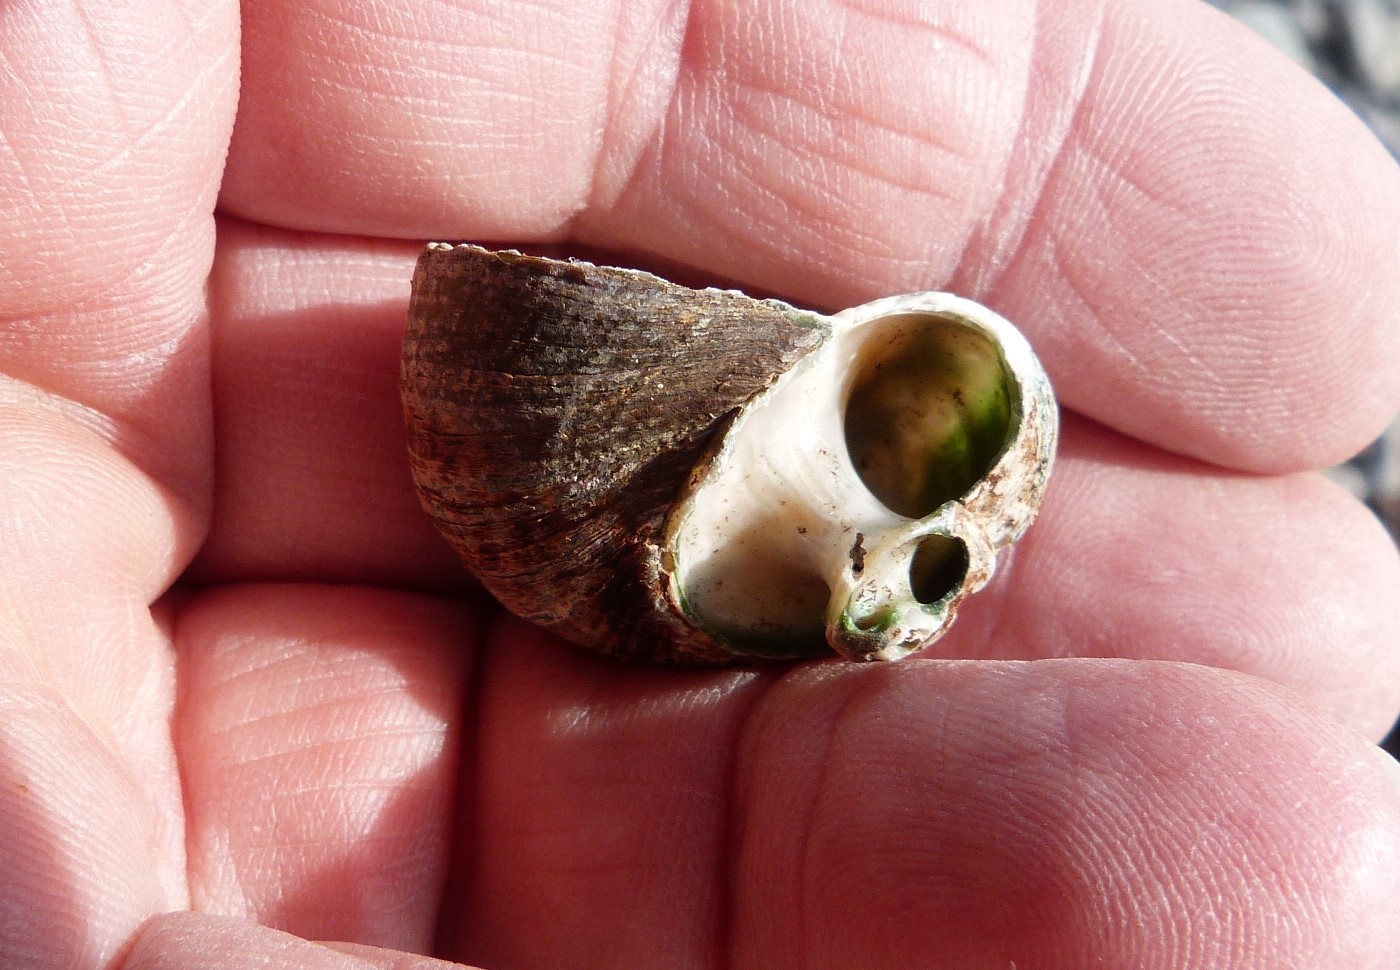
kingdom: Animalia
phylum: Mollusca
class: Gastropoda
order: Trochida
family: Turbinidae
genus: Lunella
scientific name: Lunella smaragda
